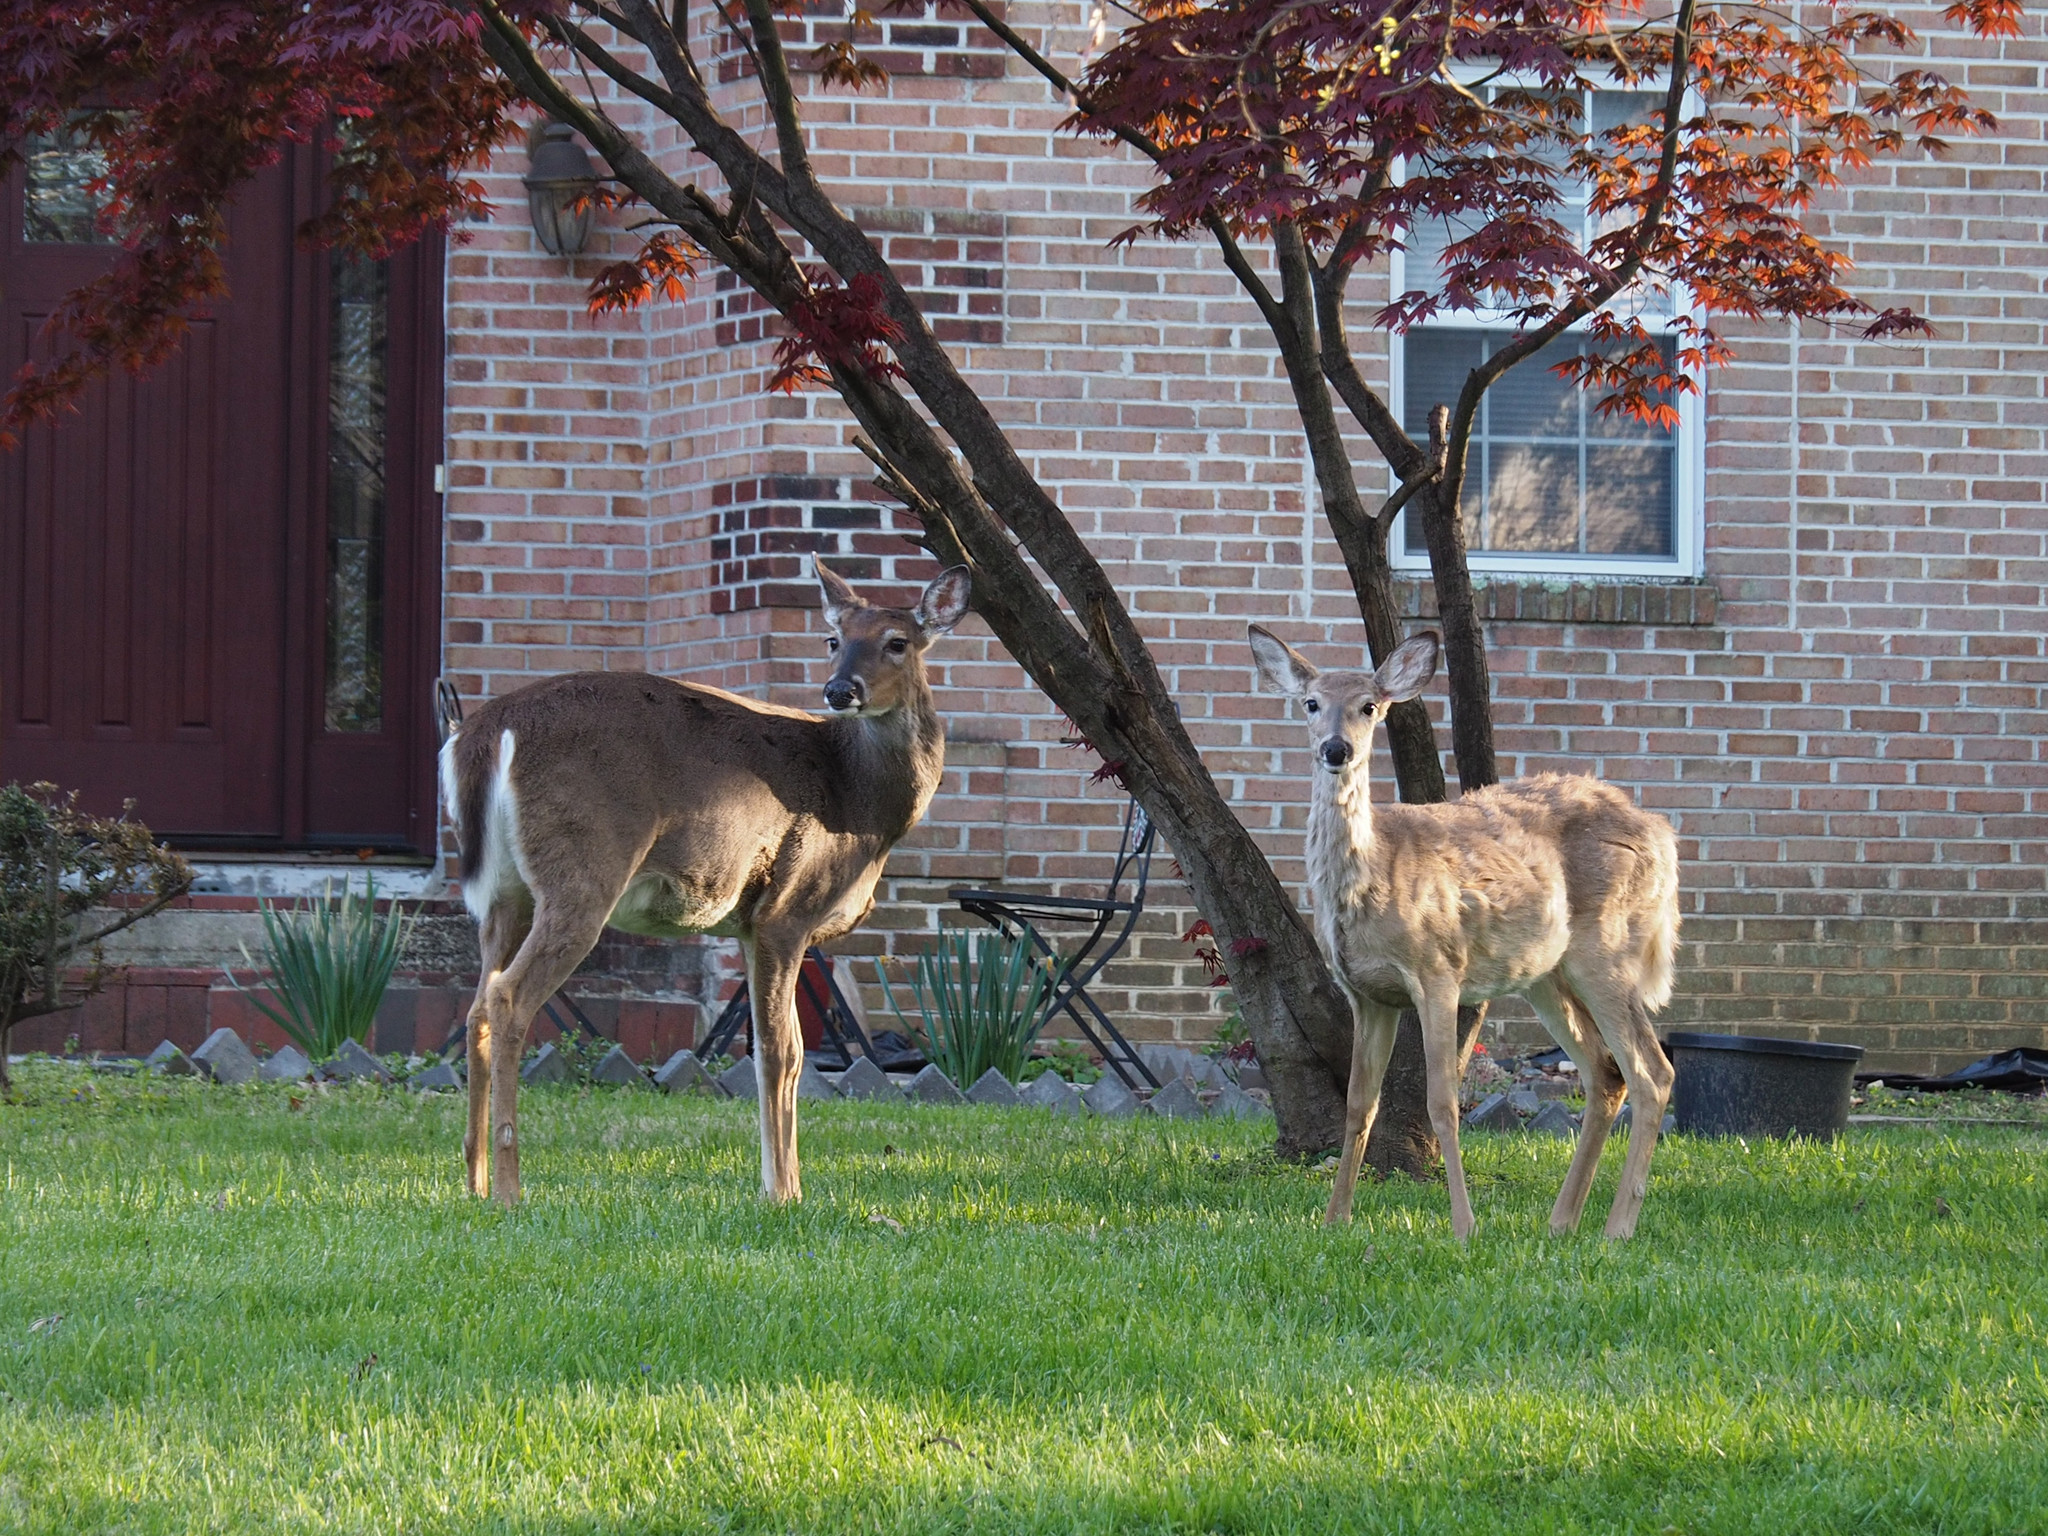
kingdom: Animalia
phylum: Chordata
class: Mammalia
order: Artiodactyla
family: Cervidae
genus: Odocoileus
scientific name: Odocoileus virginianus
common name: White-tailed deer
